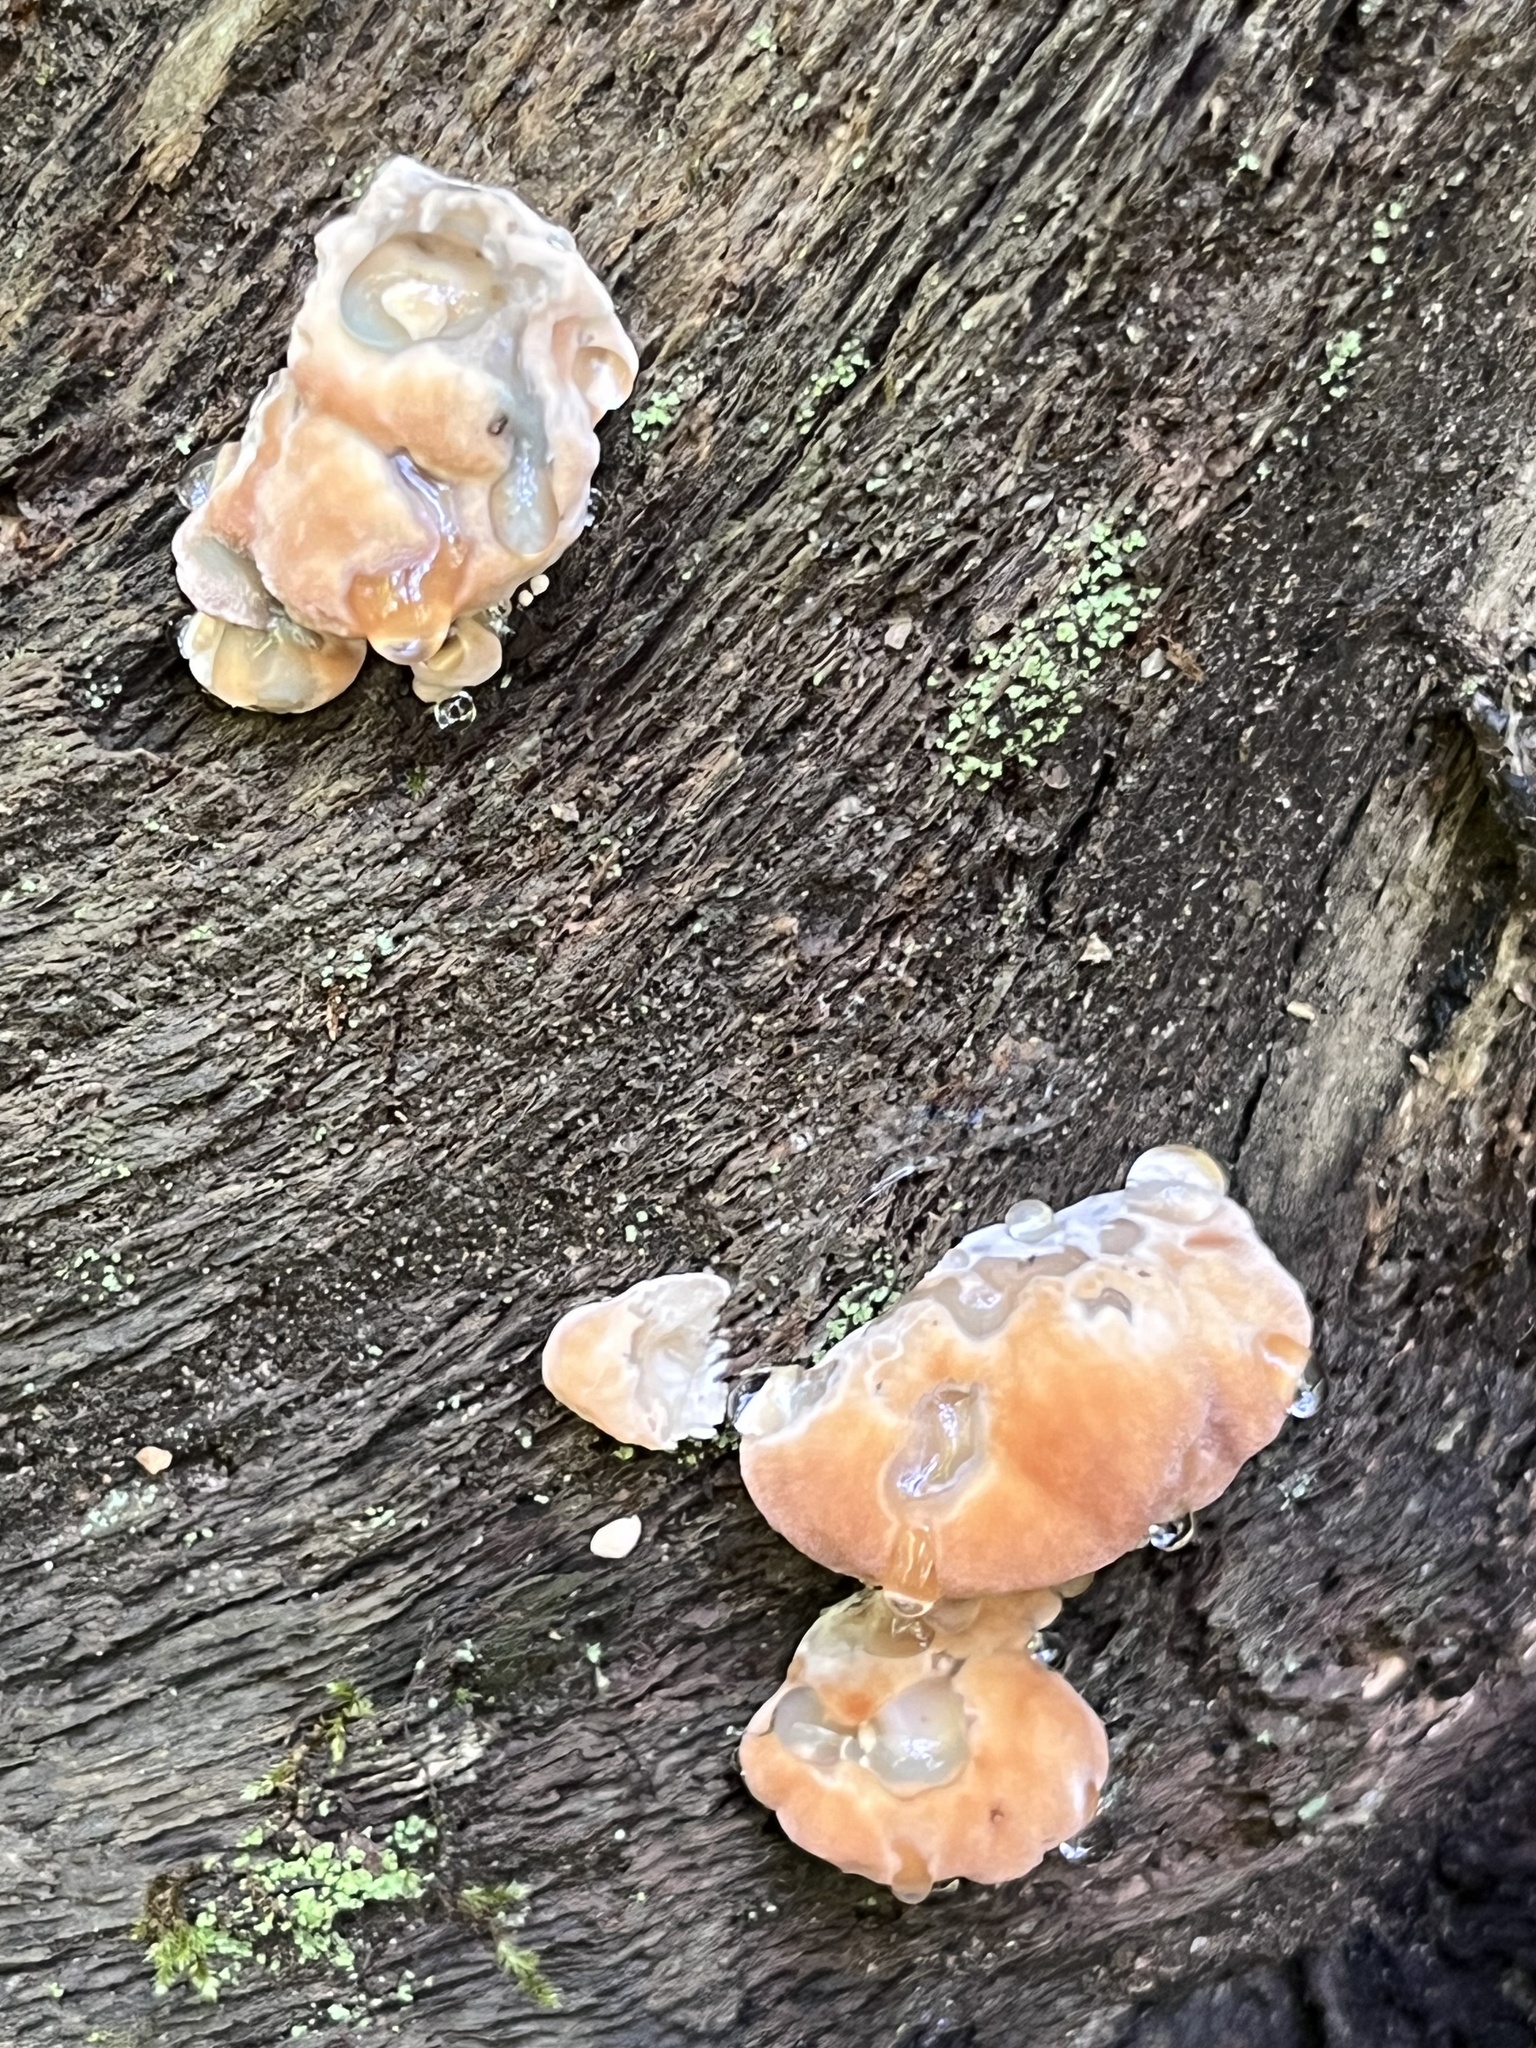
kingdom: Fungi
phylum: Basidiomycota
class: Agaricomycetes
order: Polyporales
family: Fomitopsidaceae
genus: Niveoporofomes
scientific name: Niveoporofomes spraguei
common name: Green cheese polypore
